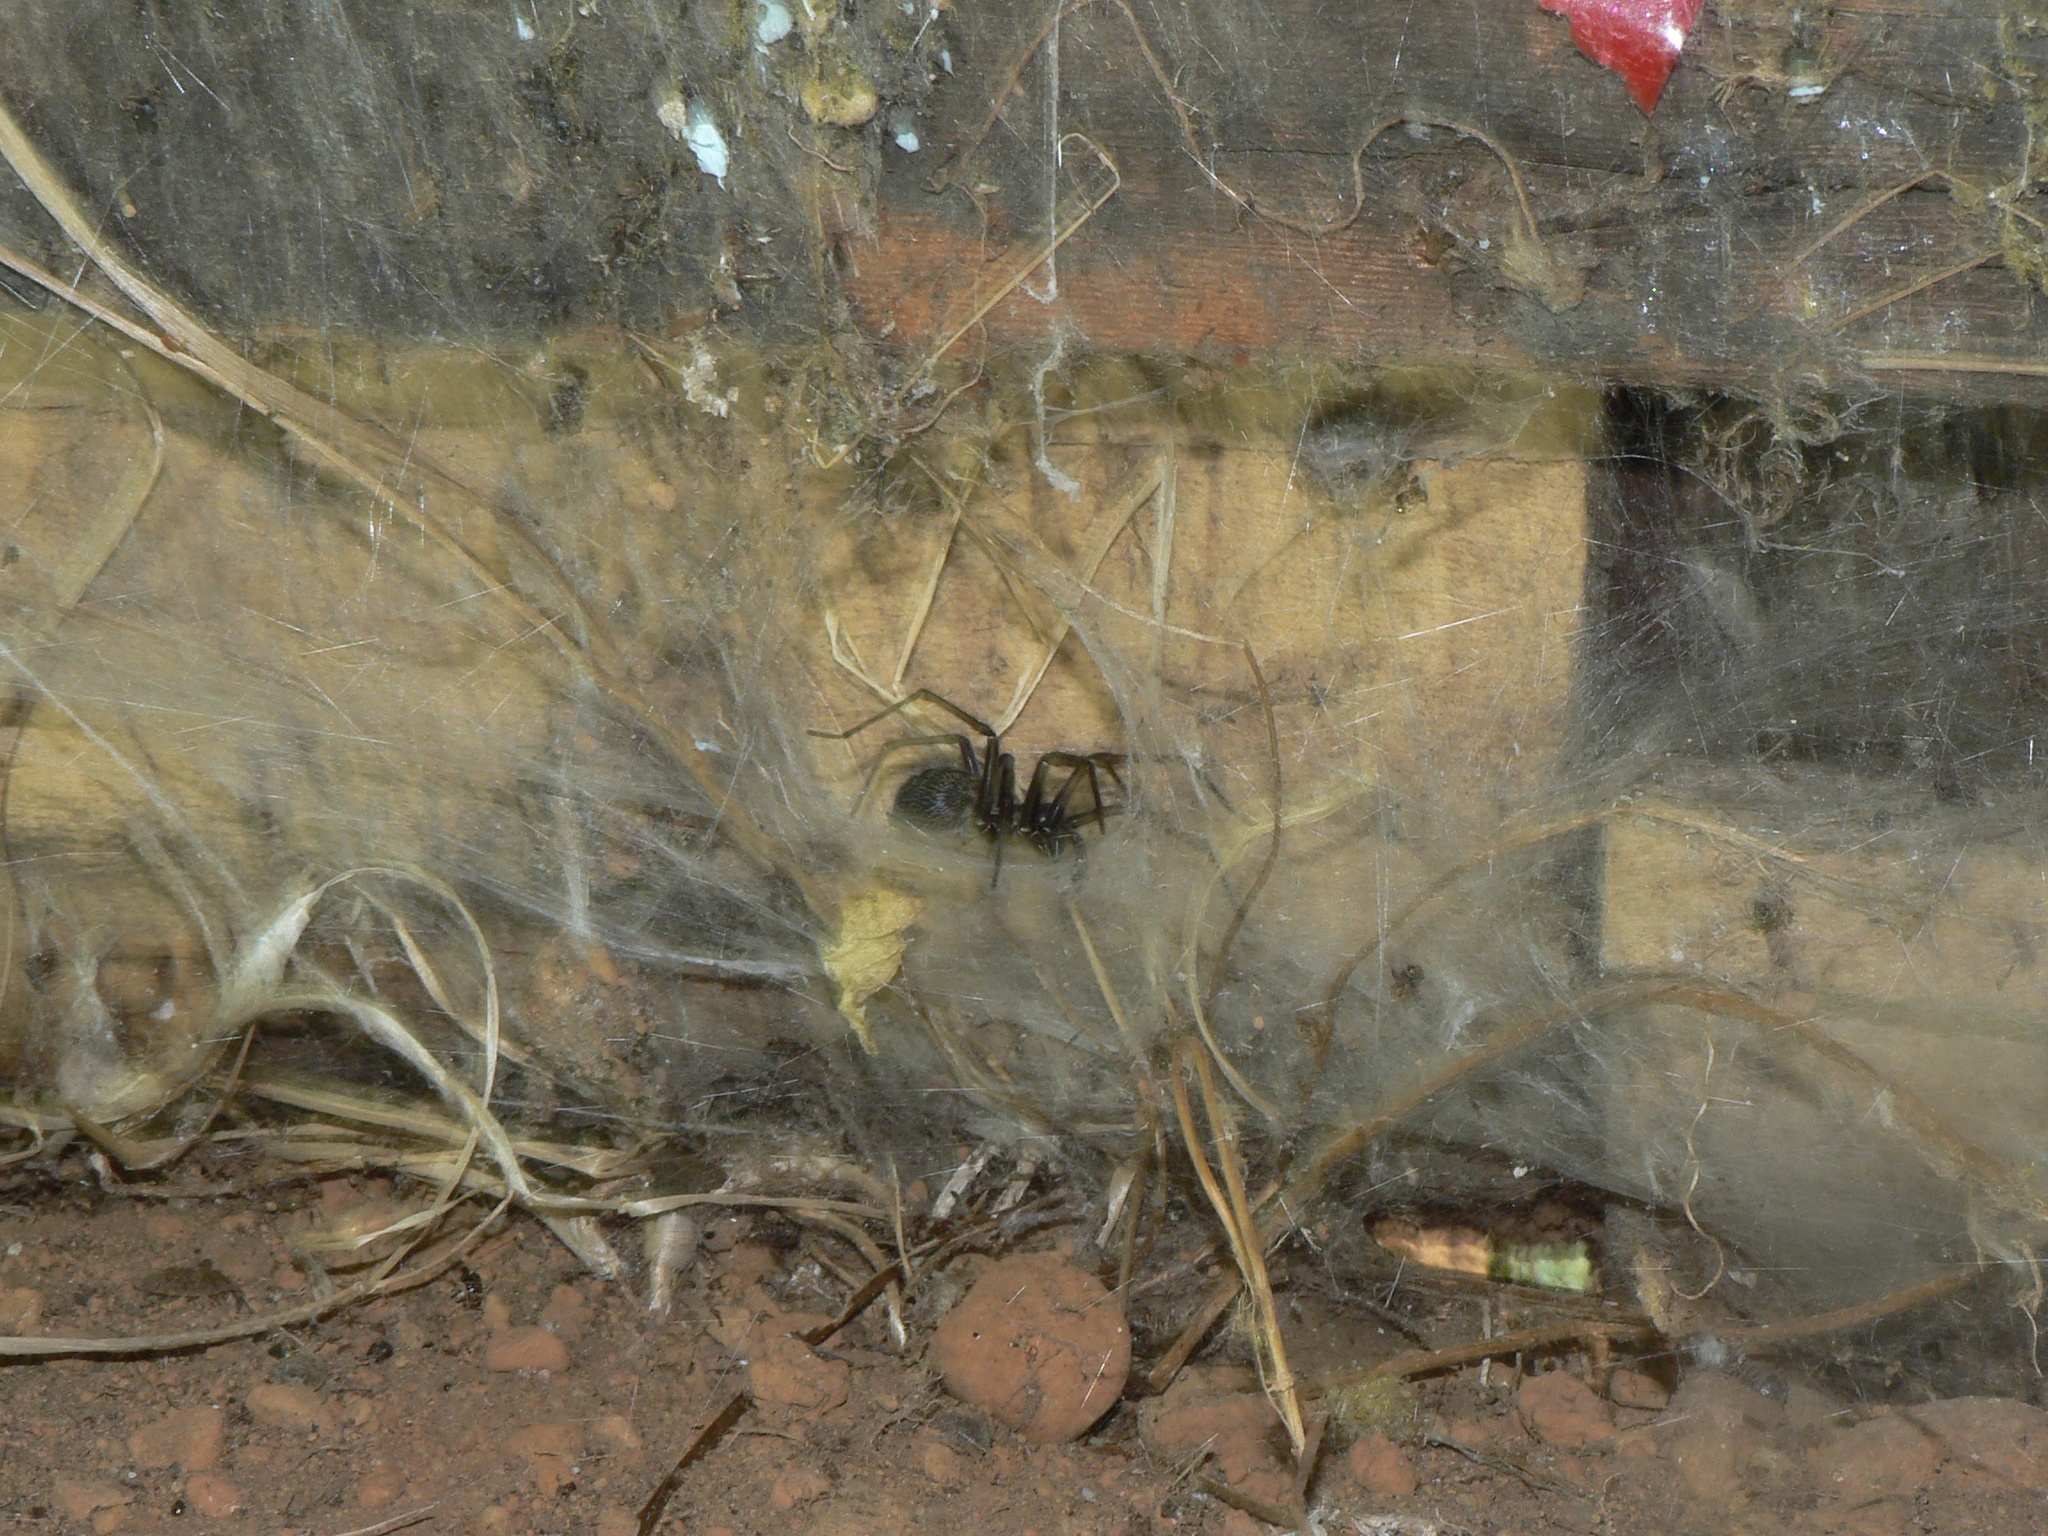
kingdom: Animalia
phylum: Arthropoda
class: Arachnida
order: Araneae
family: Agelenidae
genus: Eratigena
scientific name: Eratigena duellica
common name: Giant house spider
